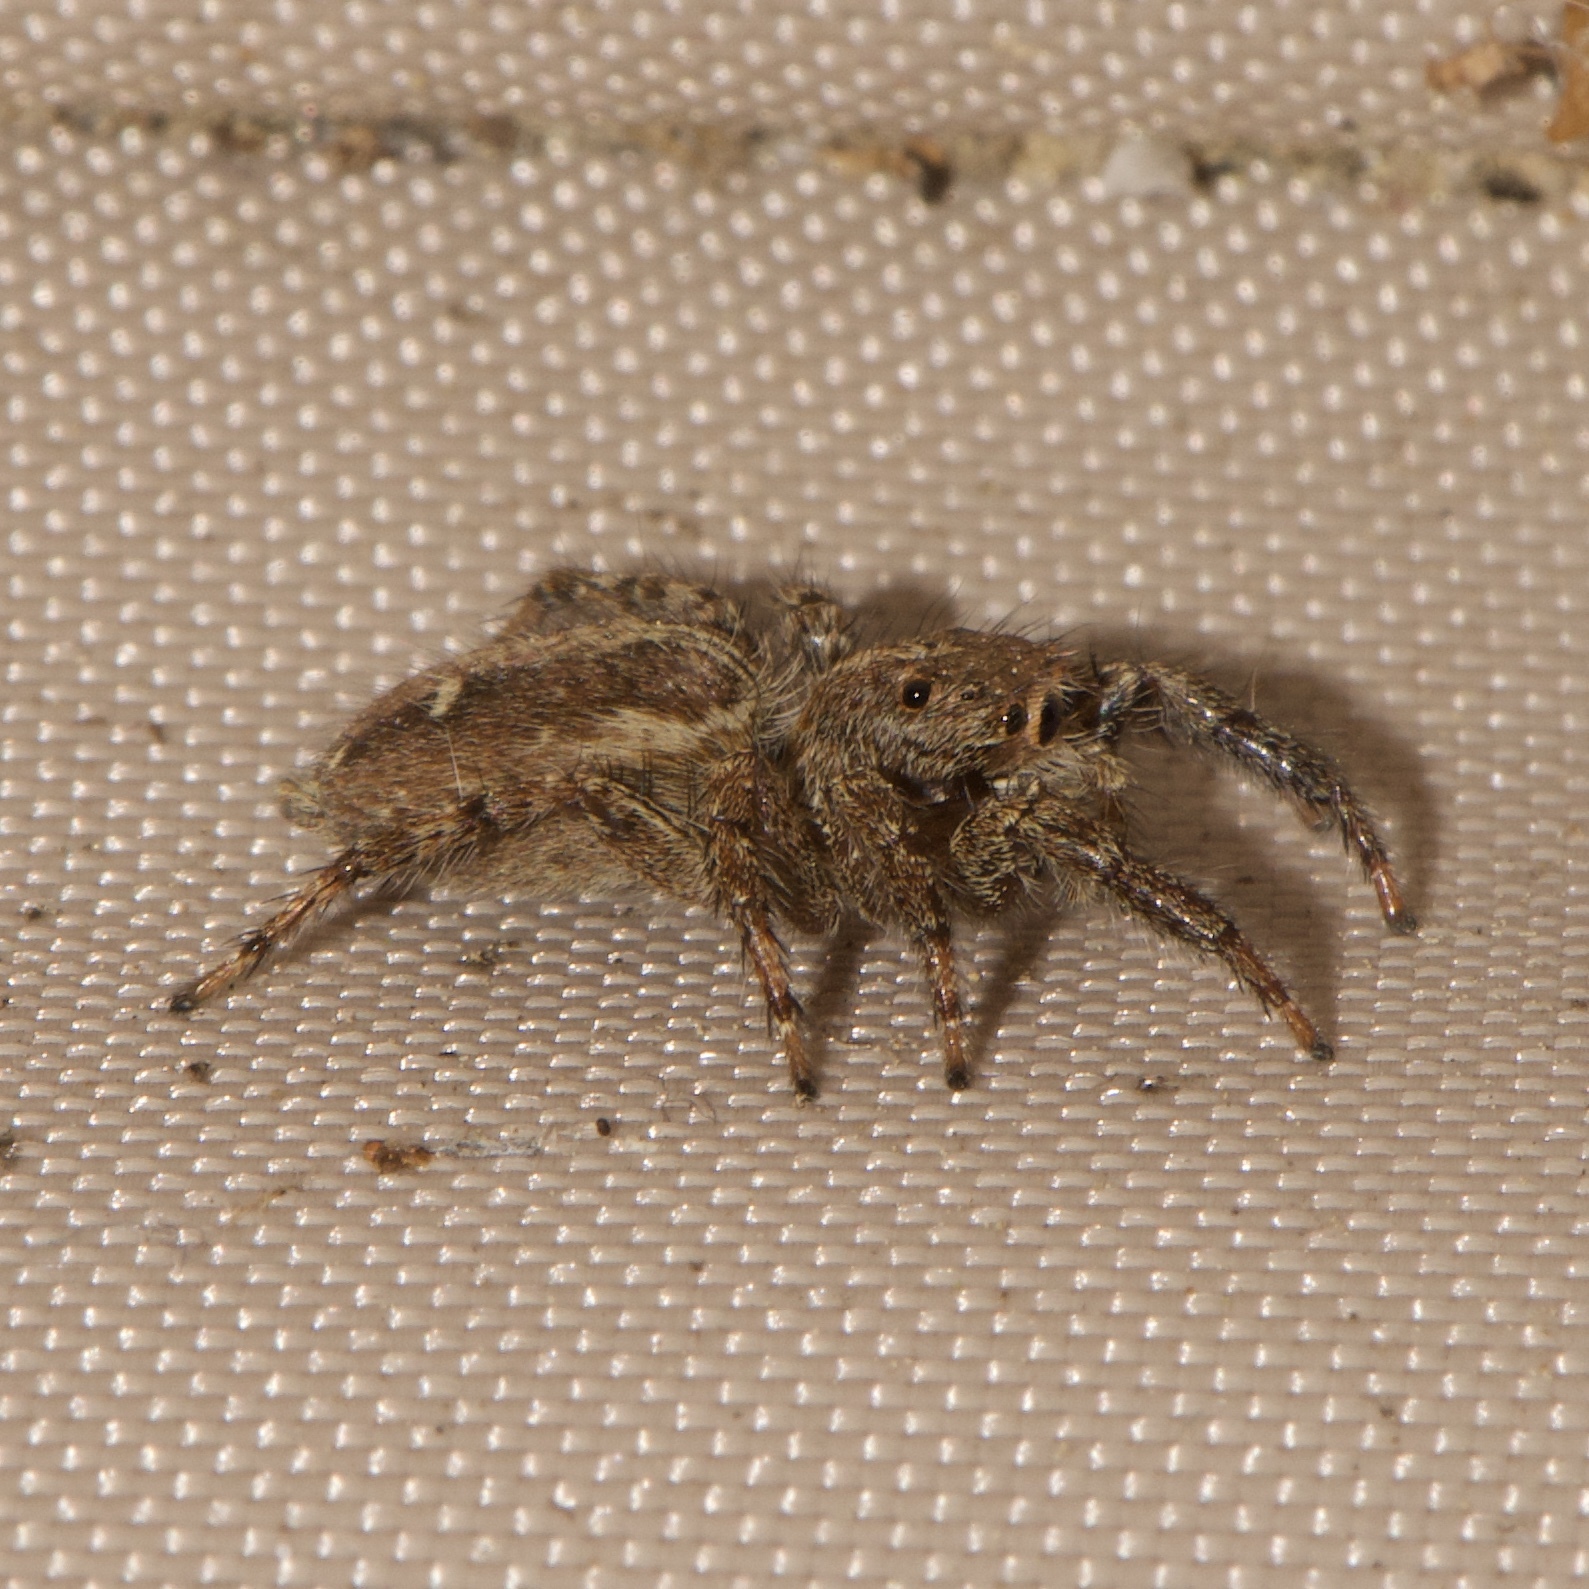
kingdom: Animalia
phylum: Arthropoda
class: Arachnida
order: Araneae
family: Salticidae
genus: Plexippus
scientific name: Plexippus paykulli
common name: Pantropical jumper
